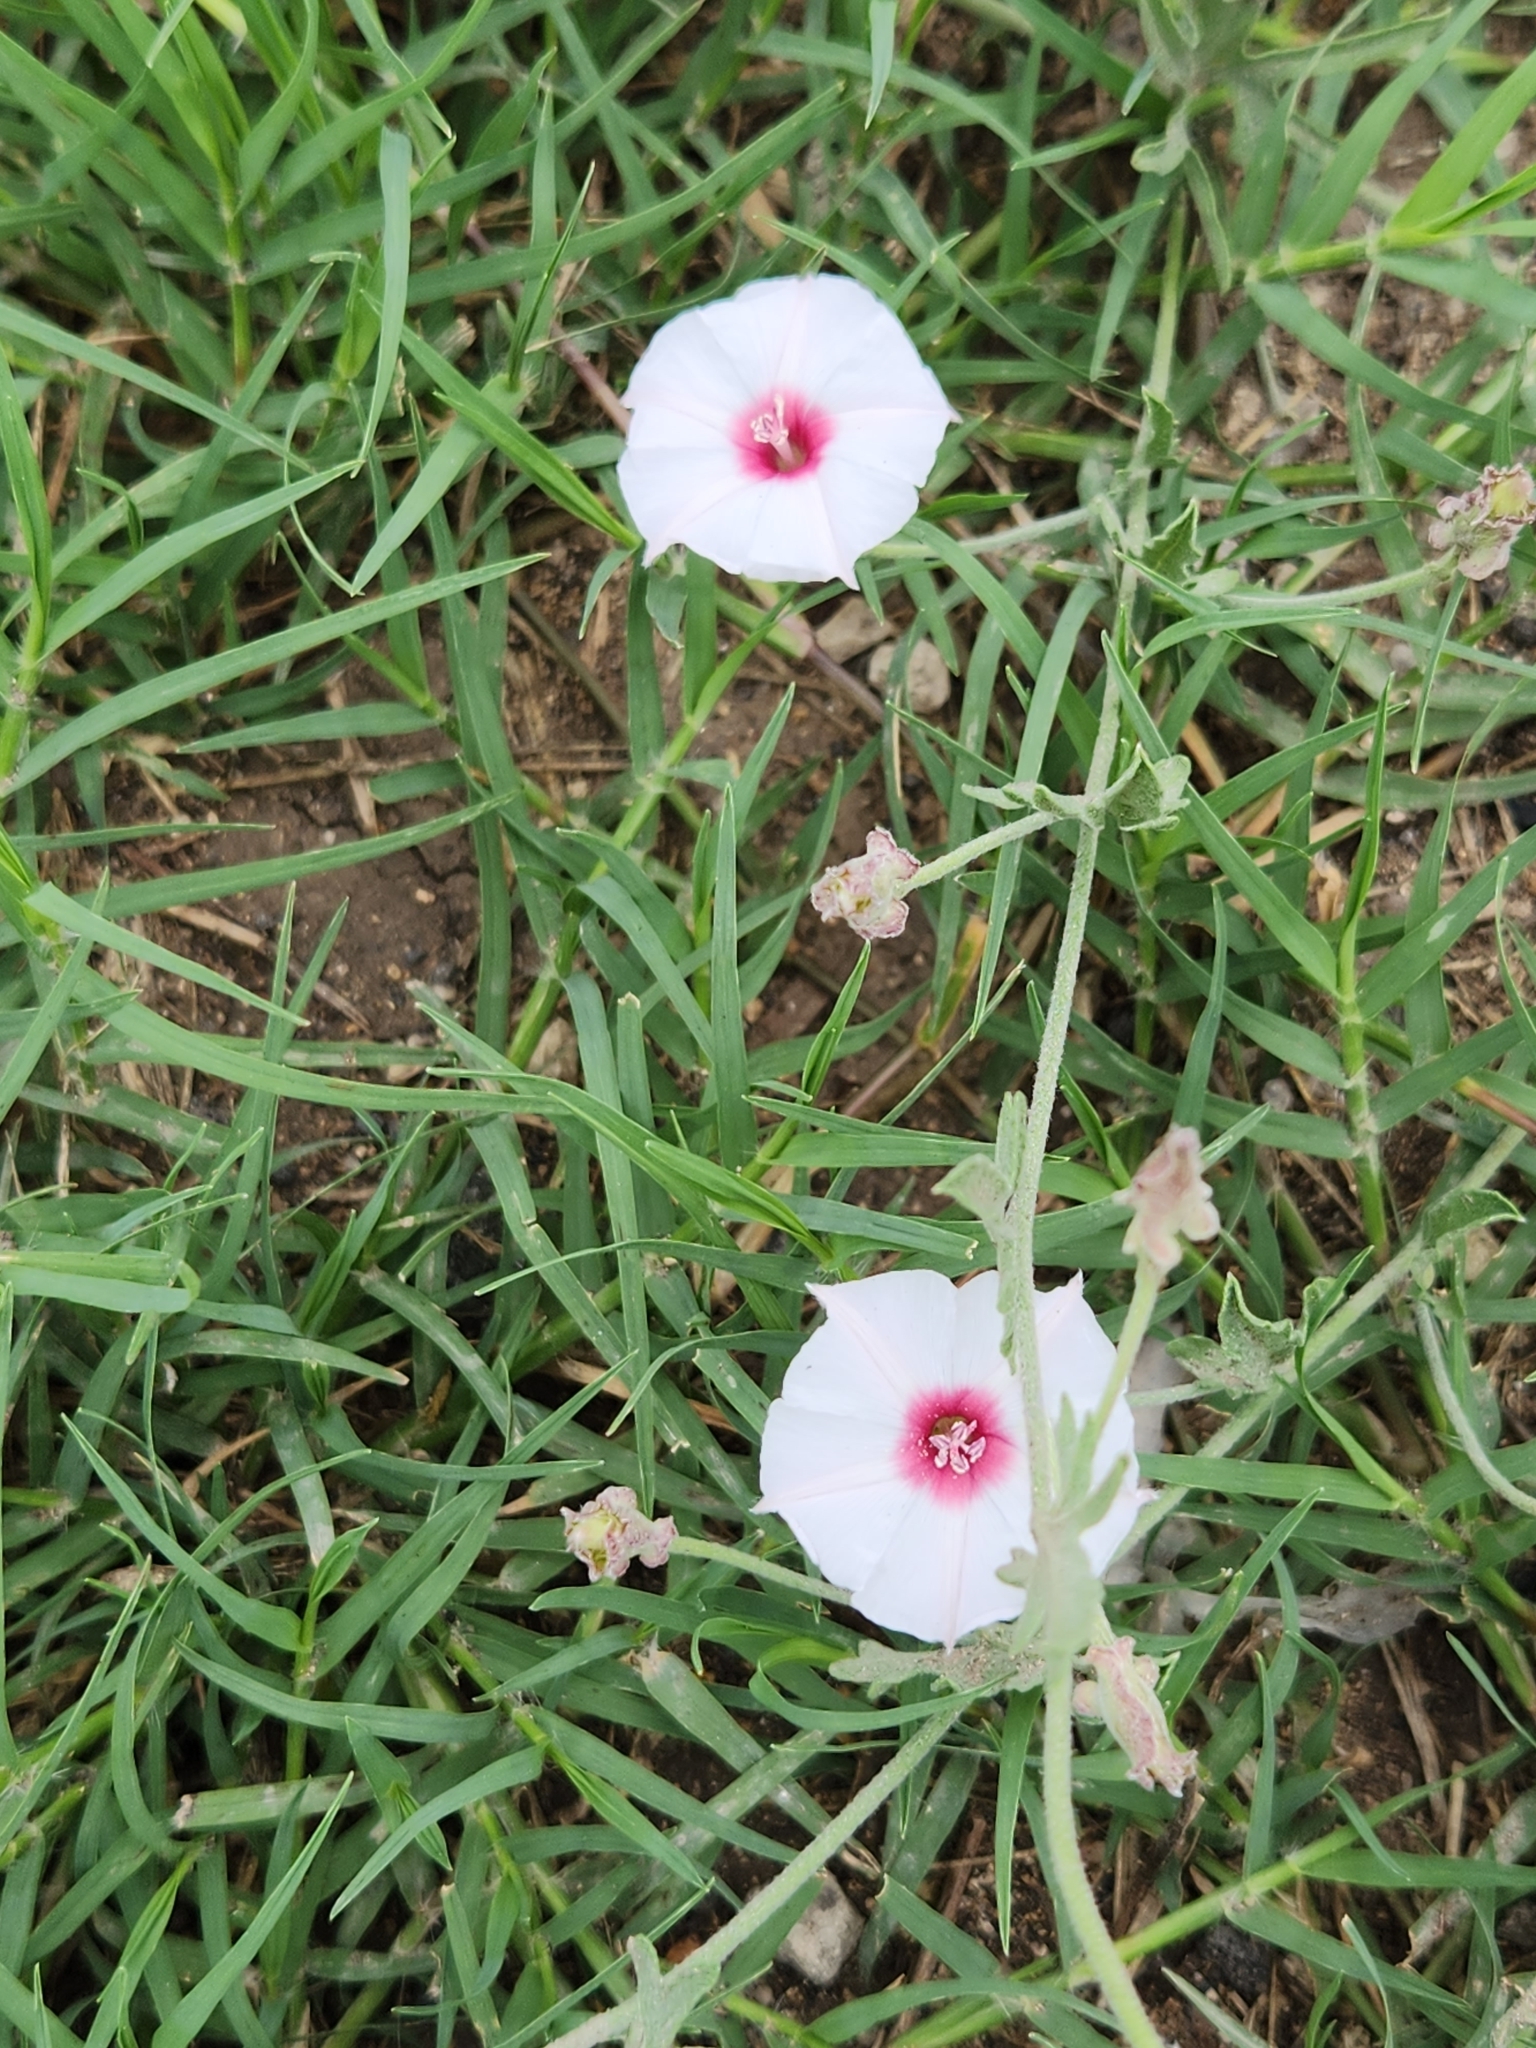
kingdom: Plantae
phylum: Tracheophyta
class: Magnoliopsida
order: Solanales
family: Convolvulaceae
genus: Convolvulus
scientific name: Convolvulus equitans
